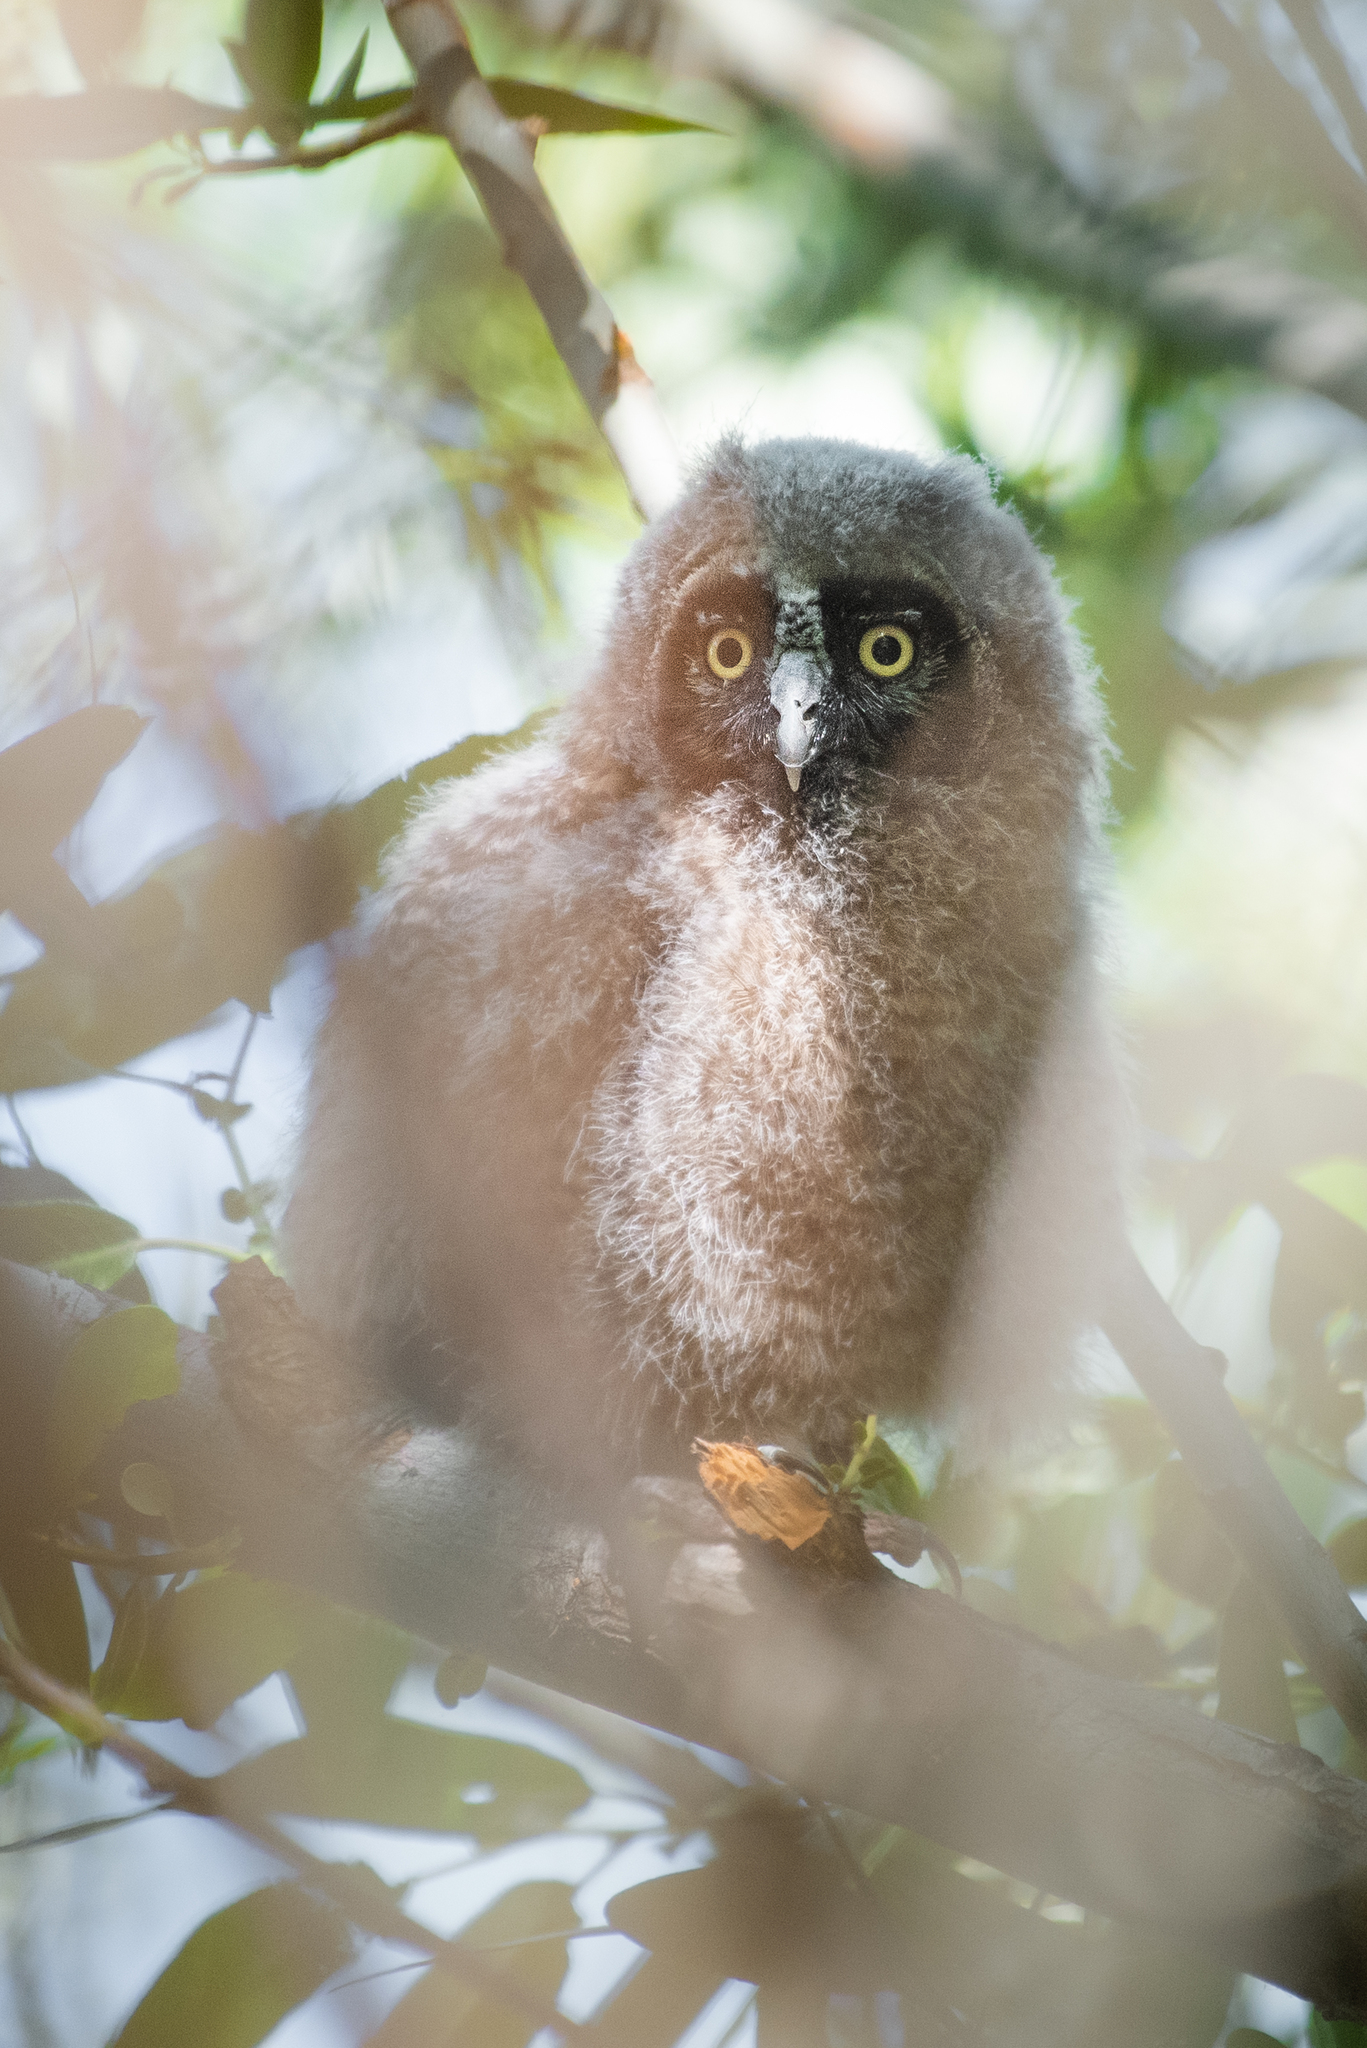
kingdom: Animalia
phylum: Chordata
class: Aves
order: Strigiformes
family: Strigidae
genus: Asio
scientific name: Asio otus
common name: Long-eared owl
